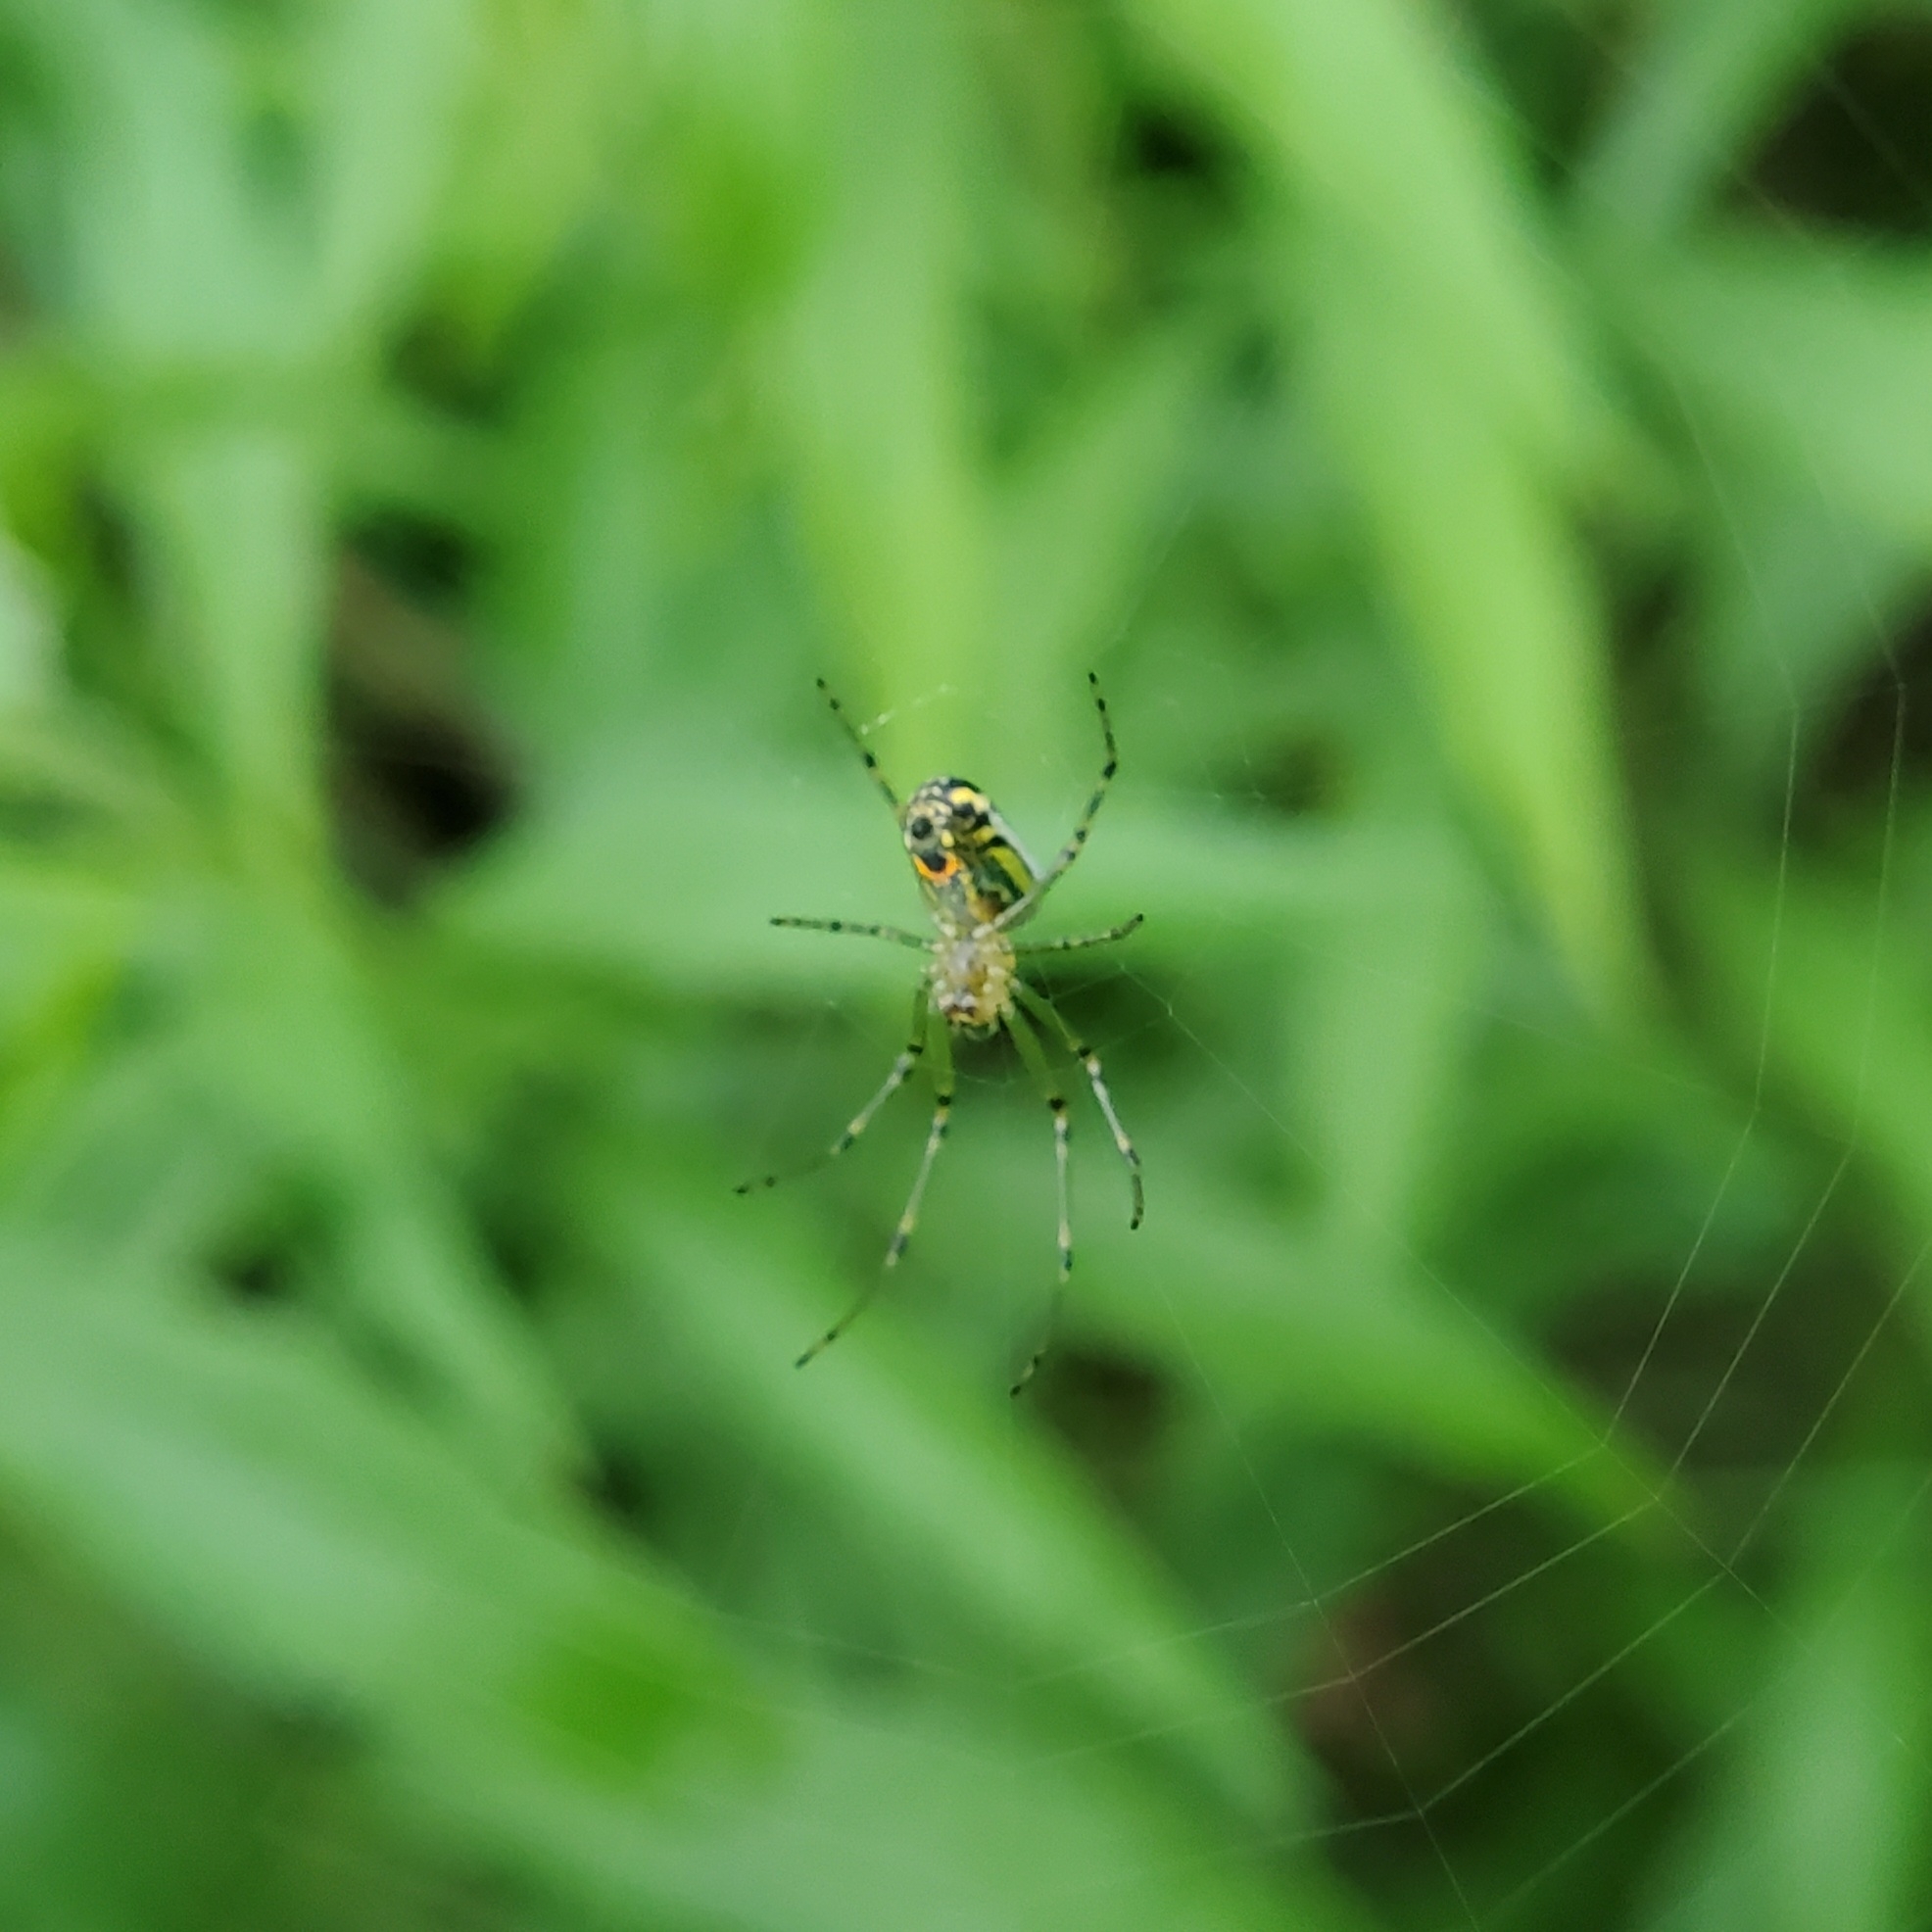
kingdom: Animalia
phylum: Arthropoda
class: Arachnida
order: Araneae
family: Tetragnathidae
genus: Leucauge
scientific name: Leucauge venusta
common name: Longjawed orb weavers
